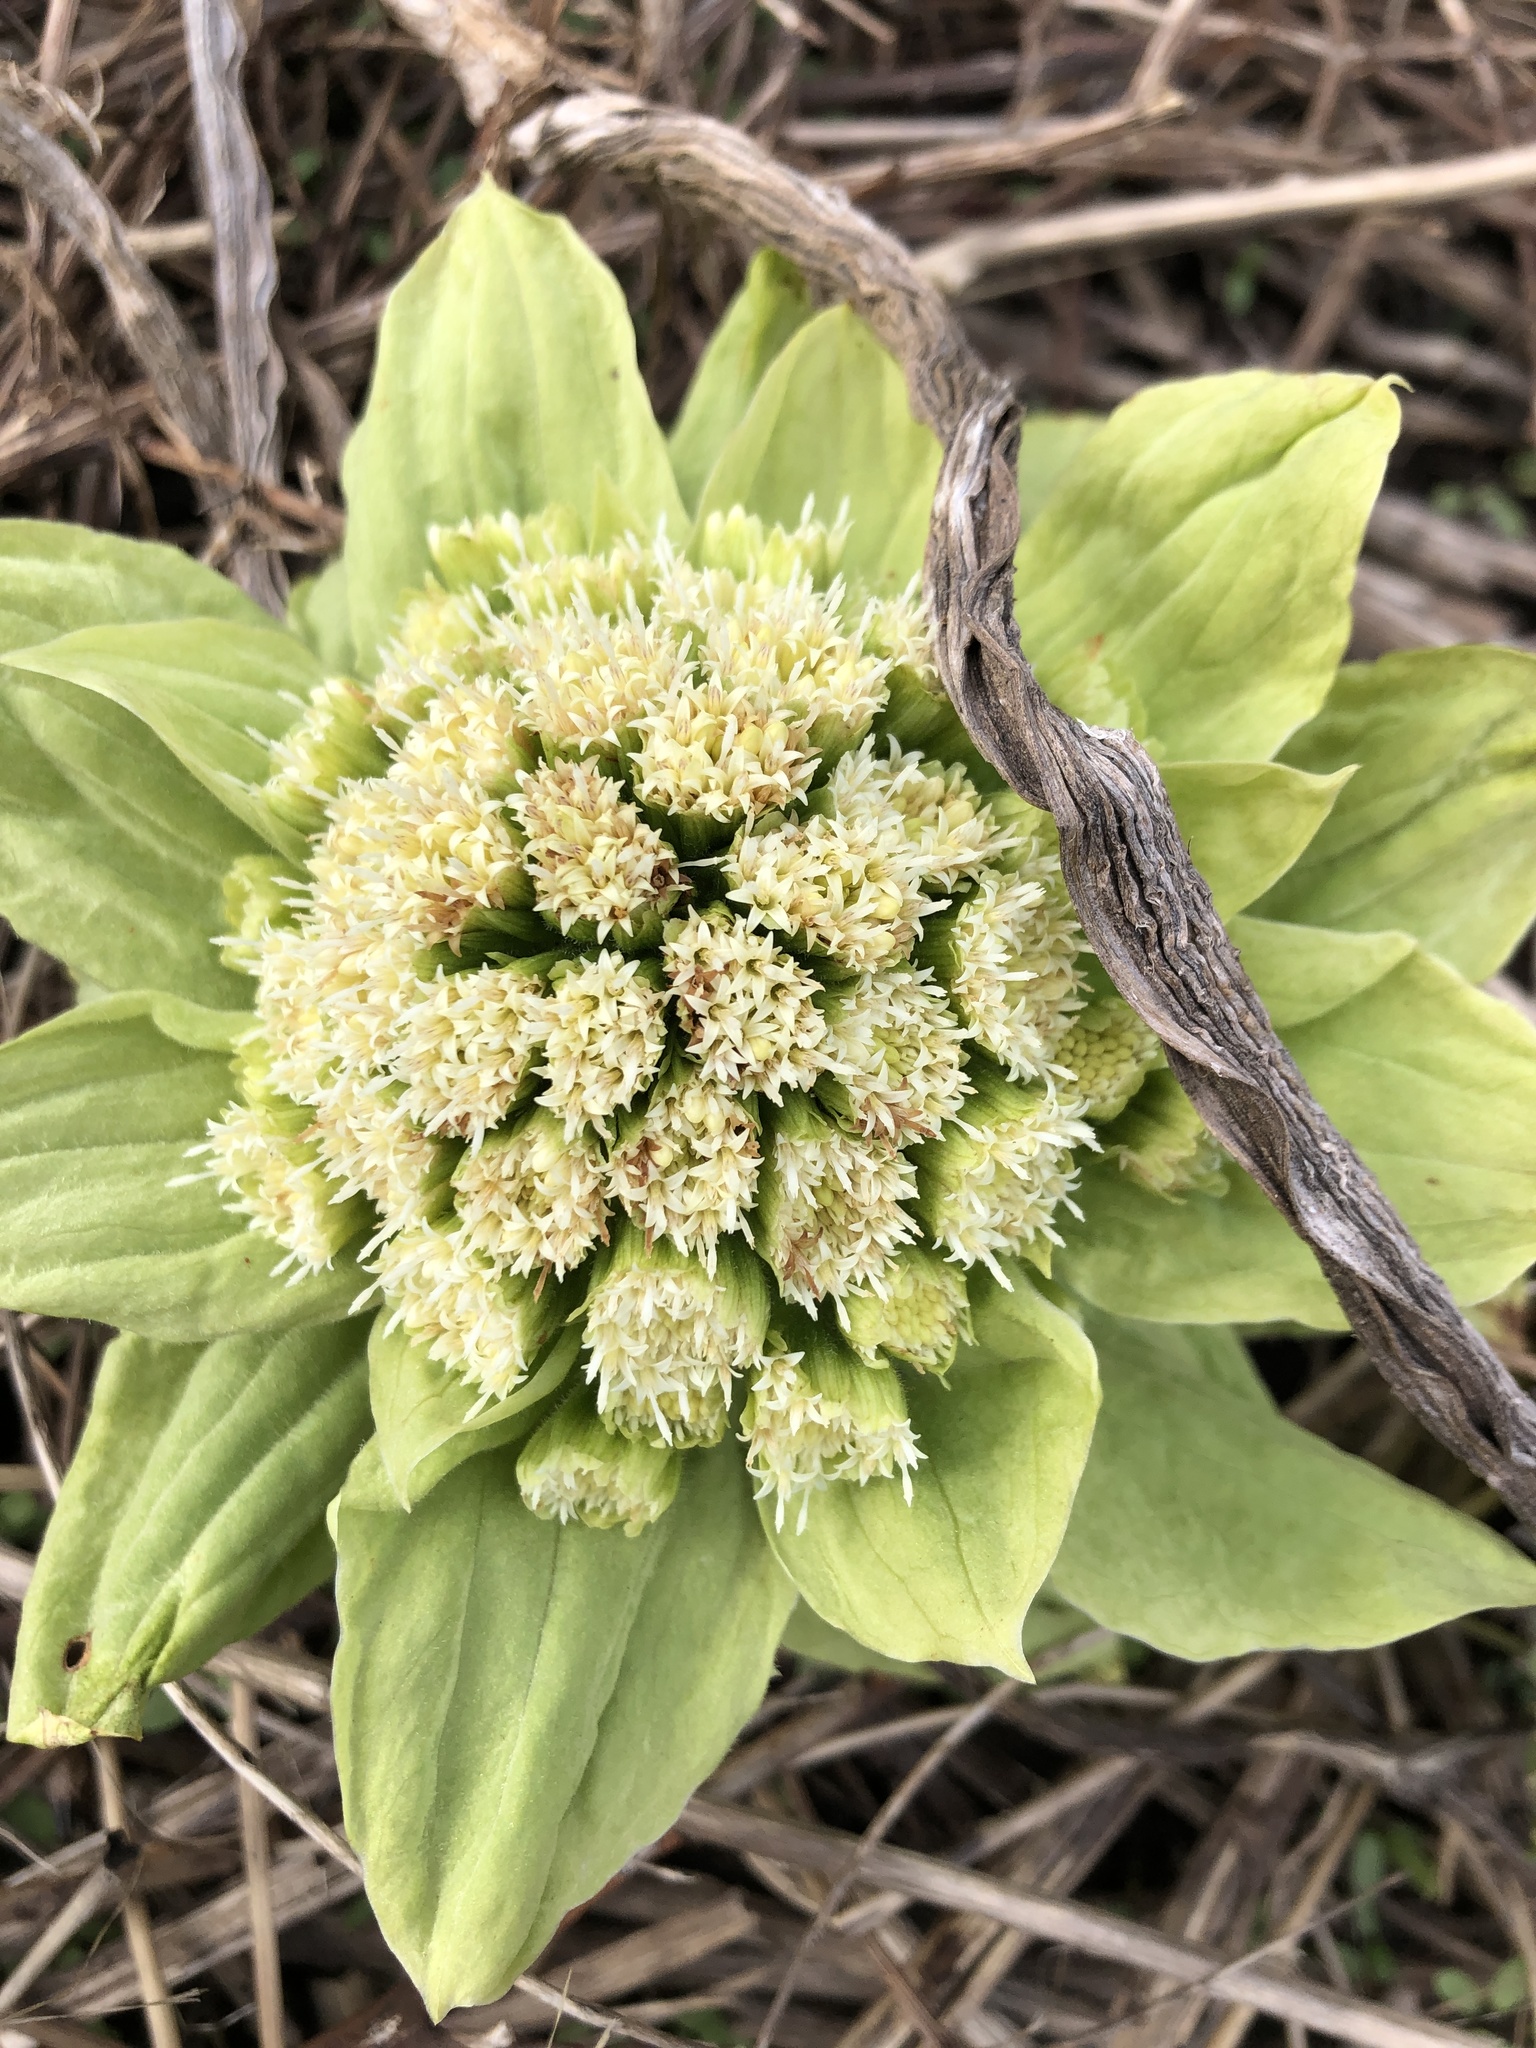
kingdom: Plantae
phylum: Tracheophyta
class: Magnoliopsida
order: Asterales
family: Asteraceae
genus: Petasites
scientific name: Petasites japonicus
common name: Giant butterbur
